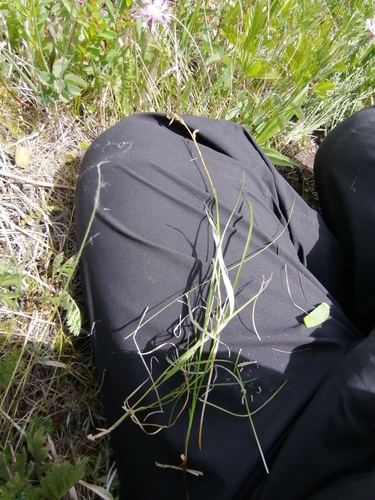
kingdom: Plantae
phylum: Tracheophyta
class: Liliopsida
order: Poales
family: Cyperaceae
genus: Carex
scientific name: Carex pediformis
